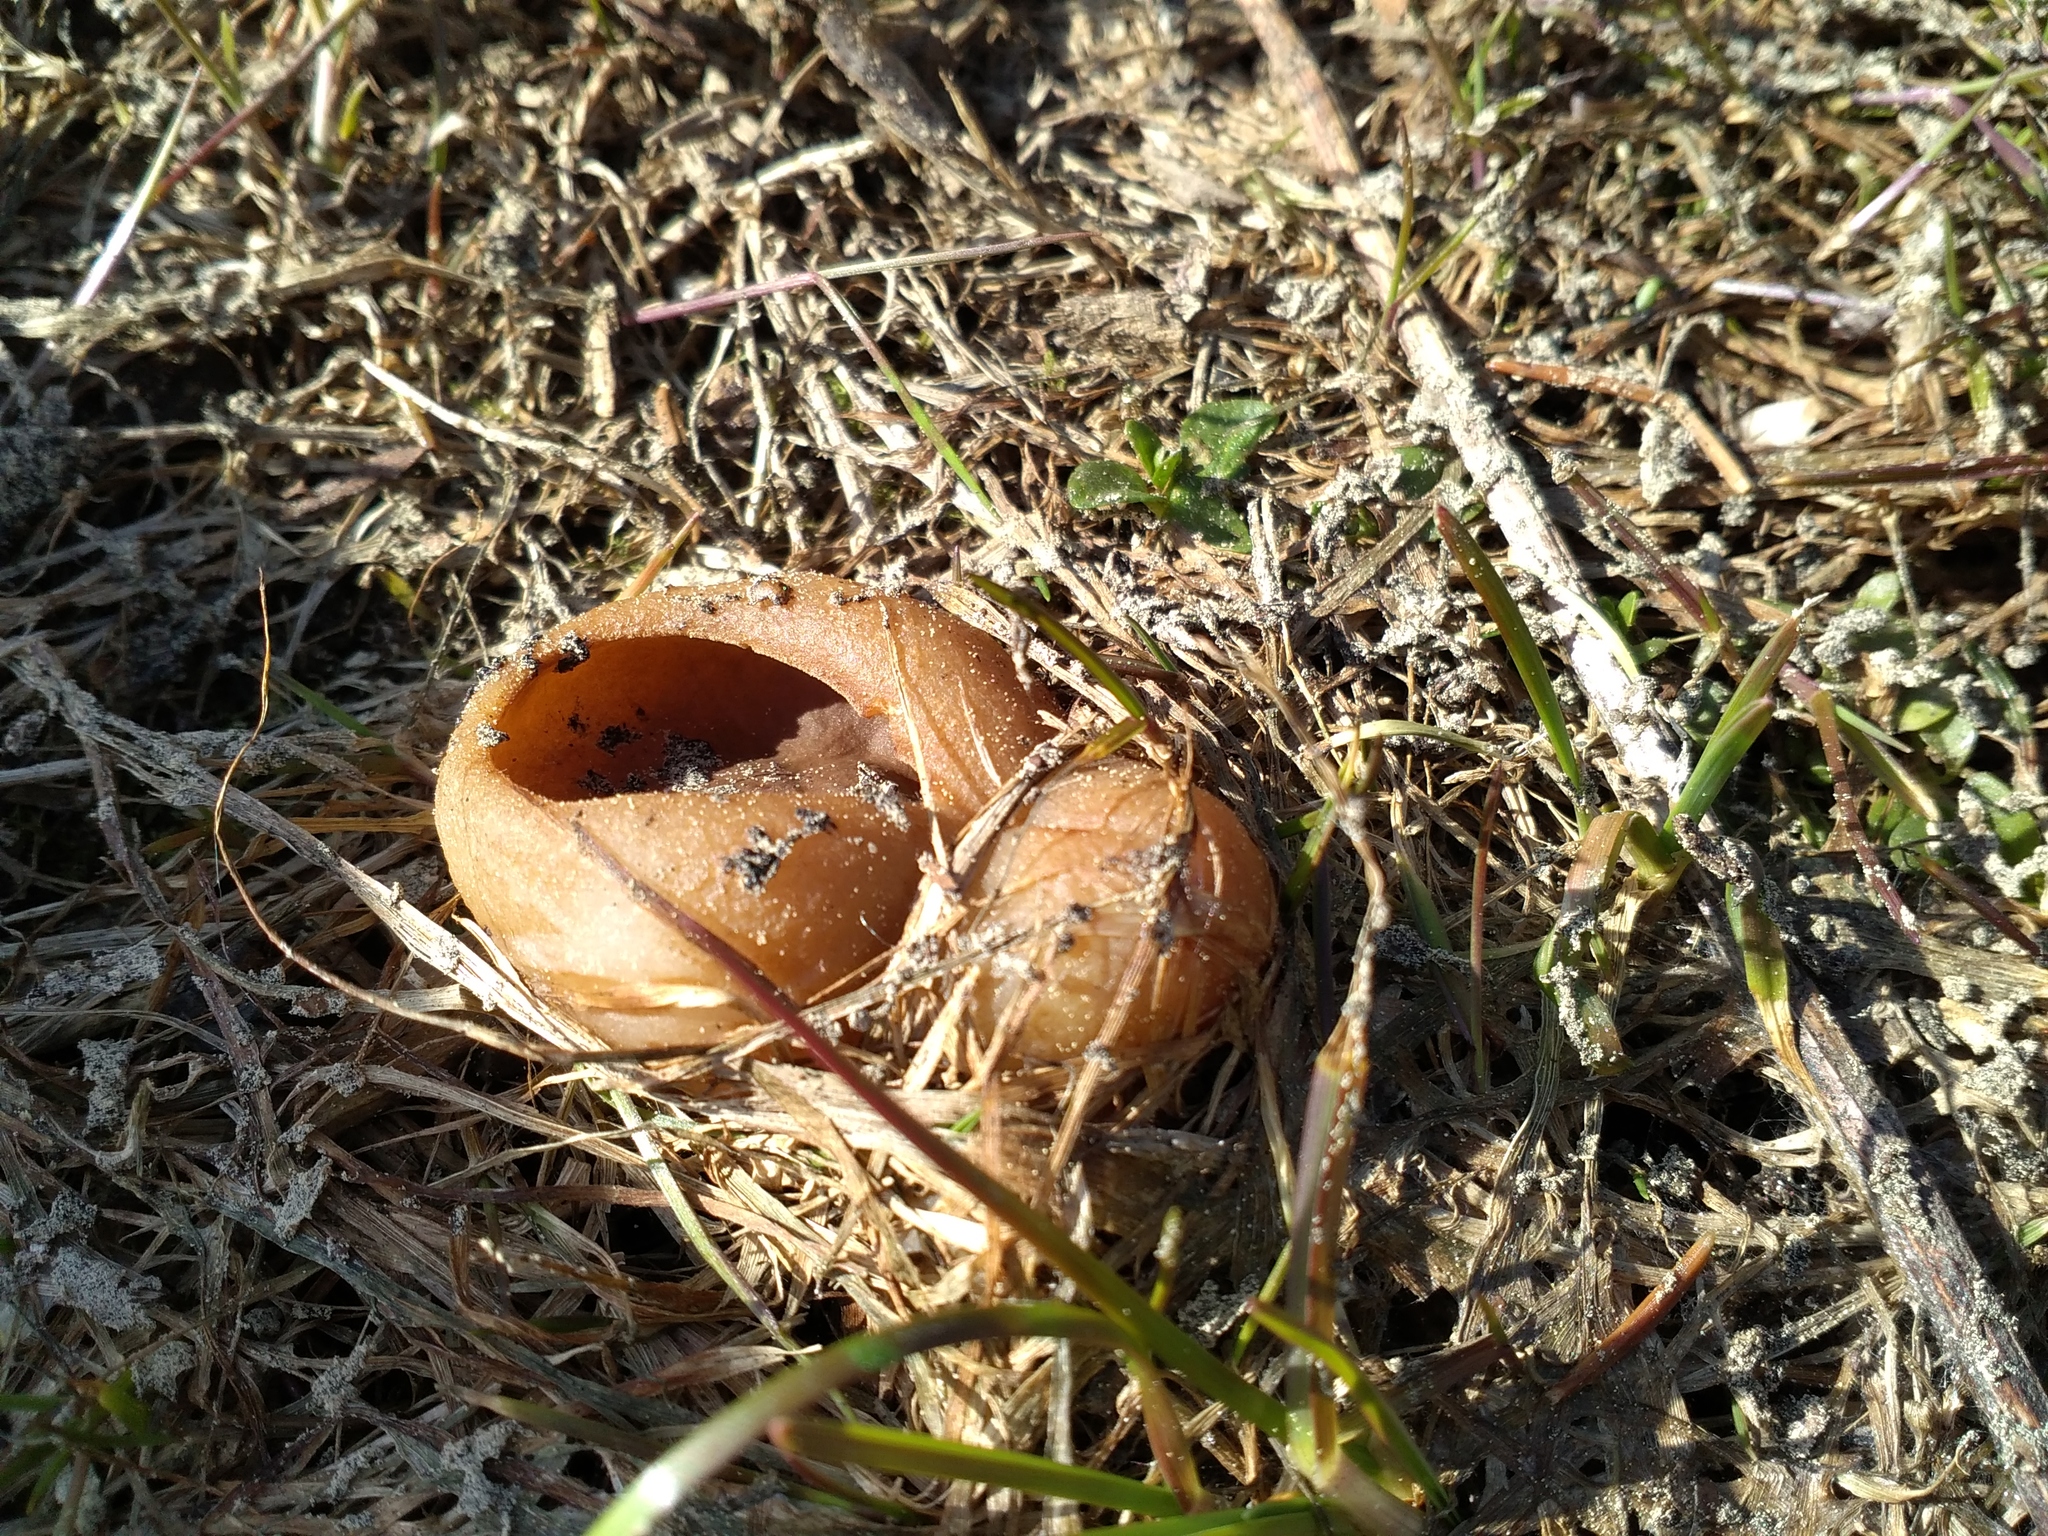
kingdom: Fungi
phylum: Ascomycota
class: Pezizomycetes
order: Pezizales
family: Pezizaceae
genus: Peziza
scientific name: Peziza vesiculosa
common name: Blistered cup
